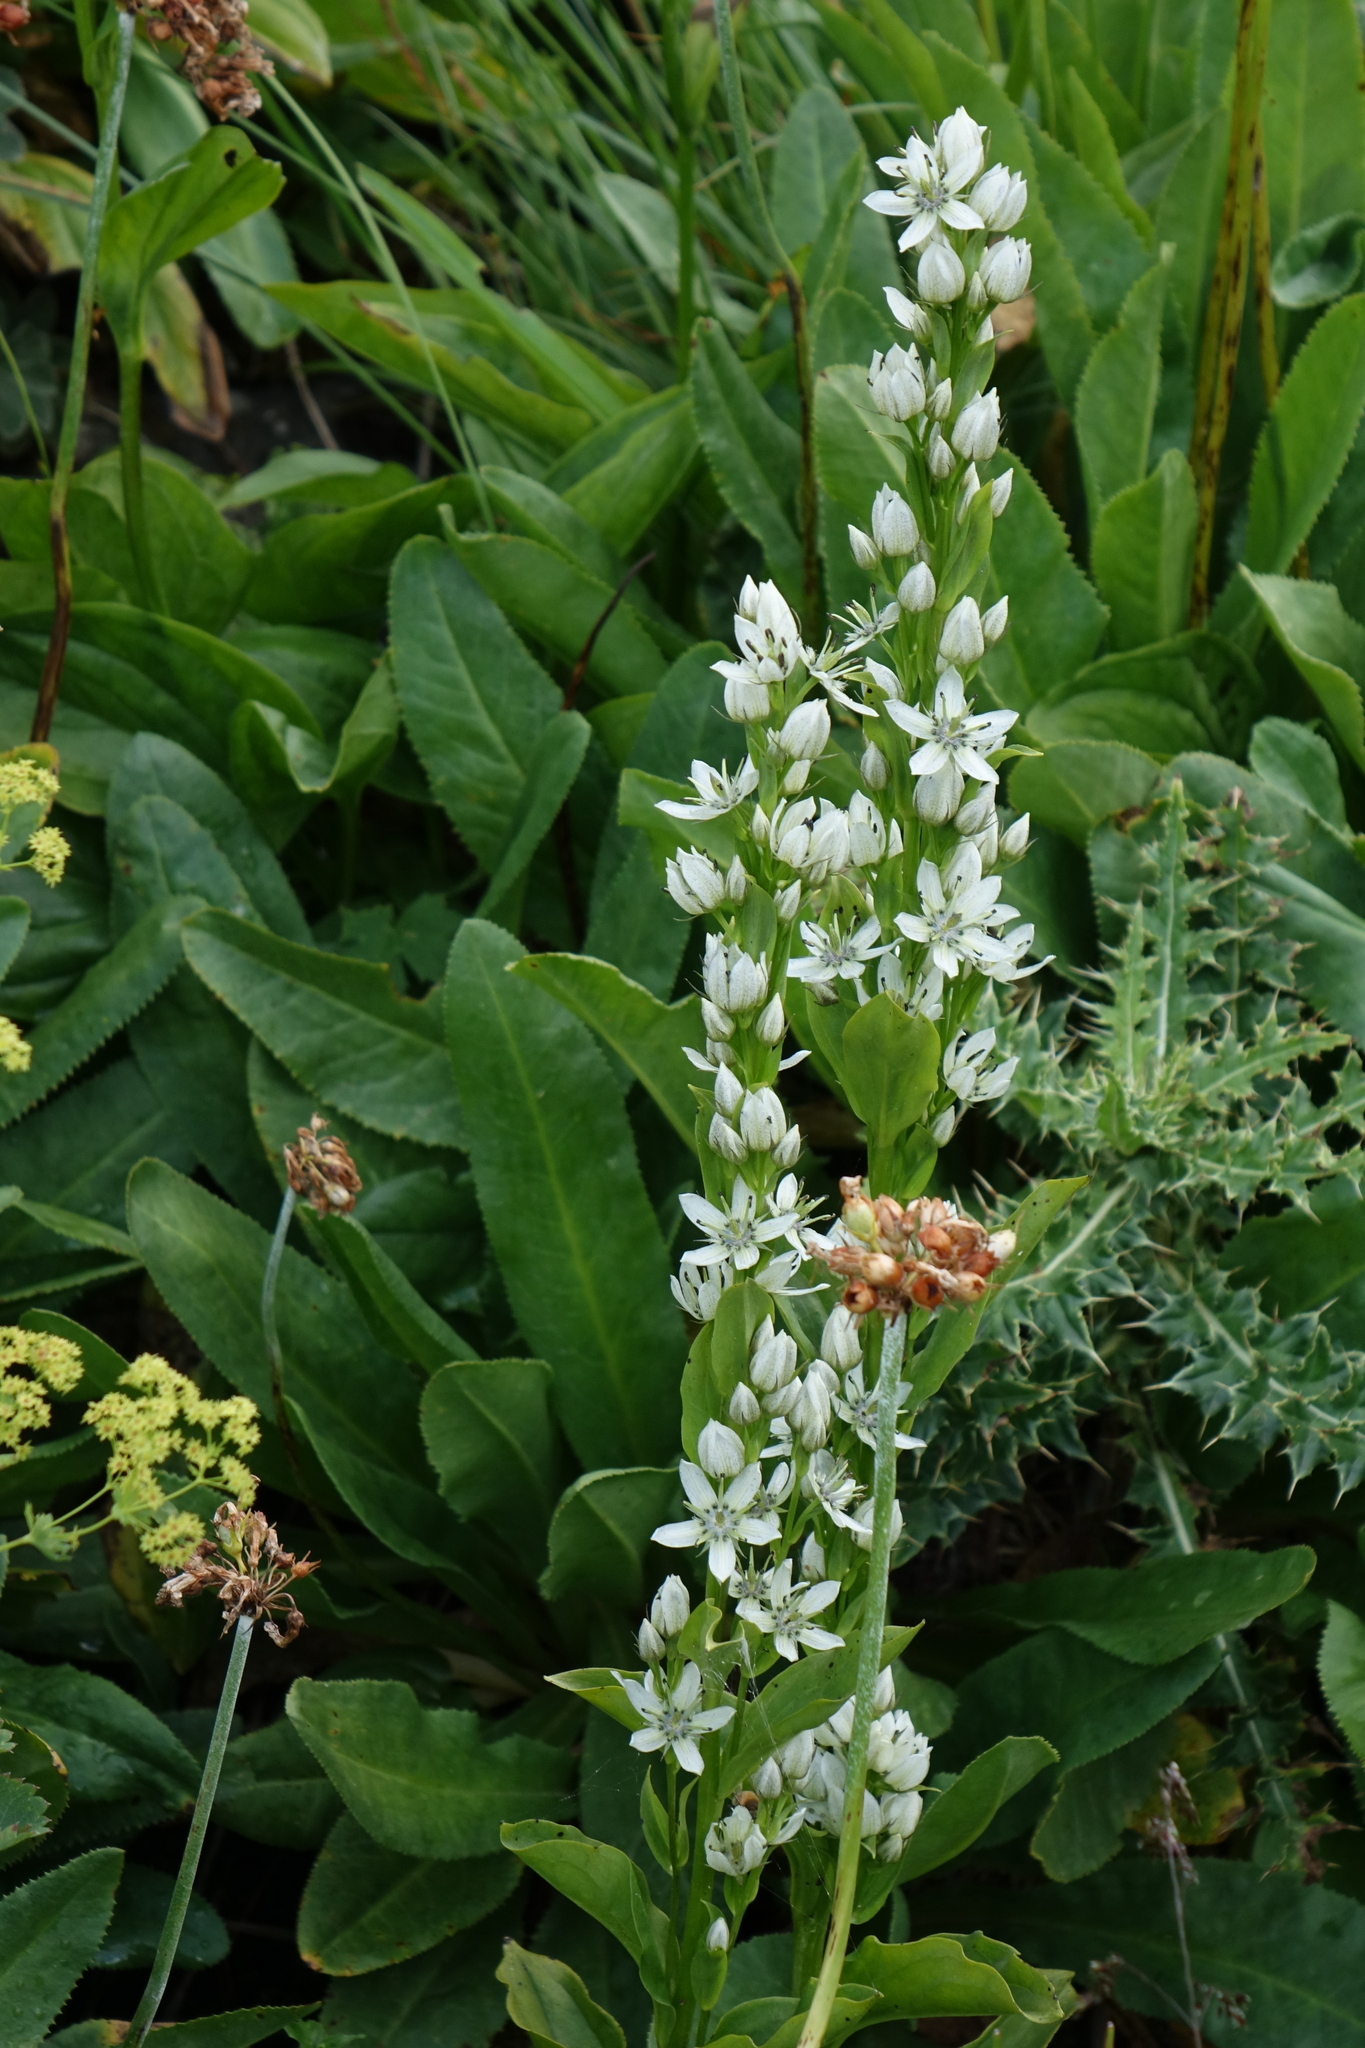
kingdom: Plantae
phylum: Tracheophyta
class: Magnoliopsida
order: Gentianales
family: Gentianaceae
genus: Swertia
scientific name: Swertia iberica
